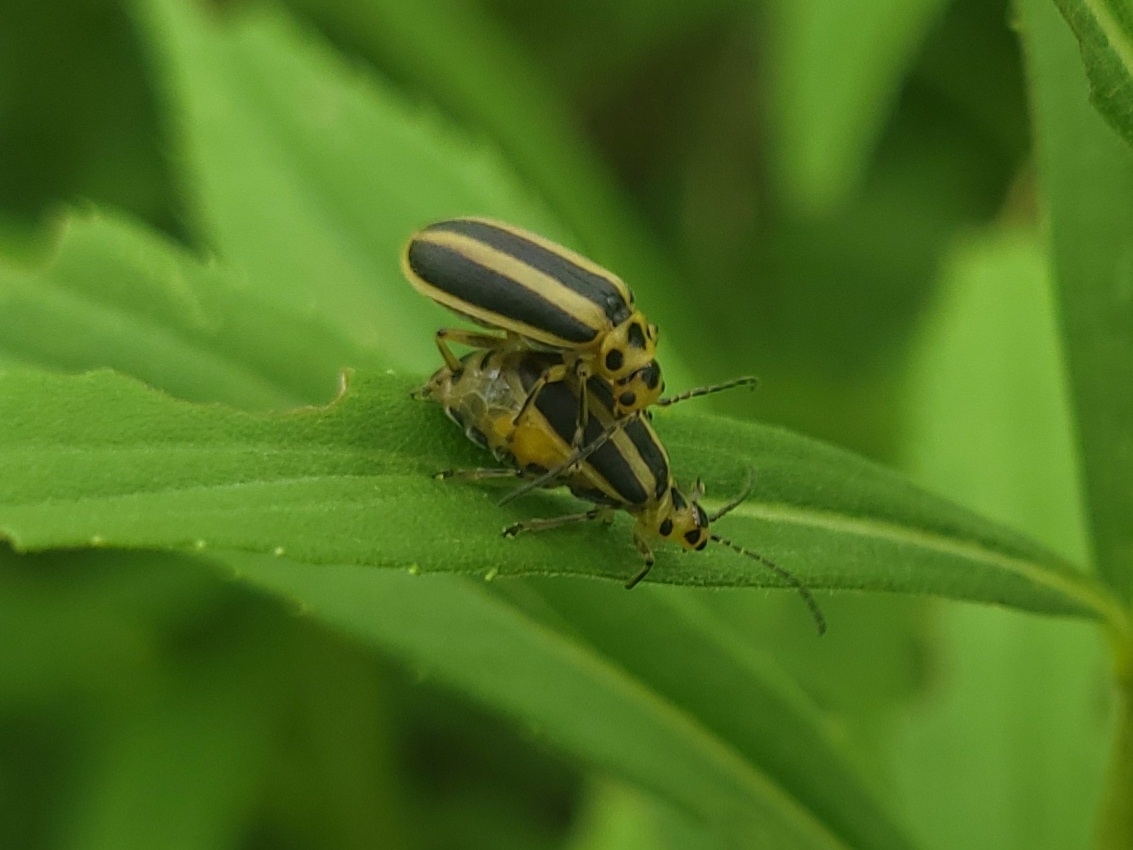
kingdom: Animalia
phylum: Arthropoda
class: Insecta
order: Coleoptera
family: Chrysomelidae
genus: Trirhabda
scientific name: Trirhabda canadensis
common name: Goldenrod leaf beetle
